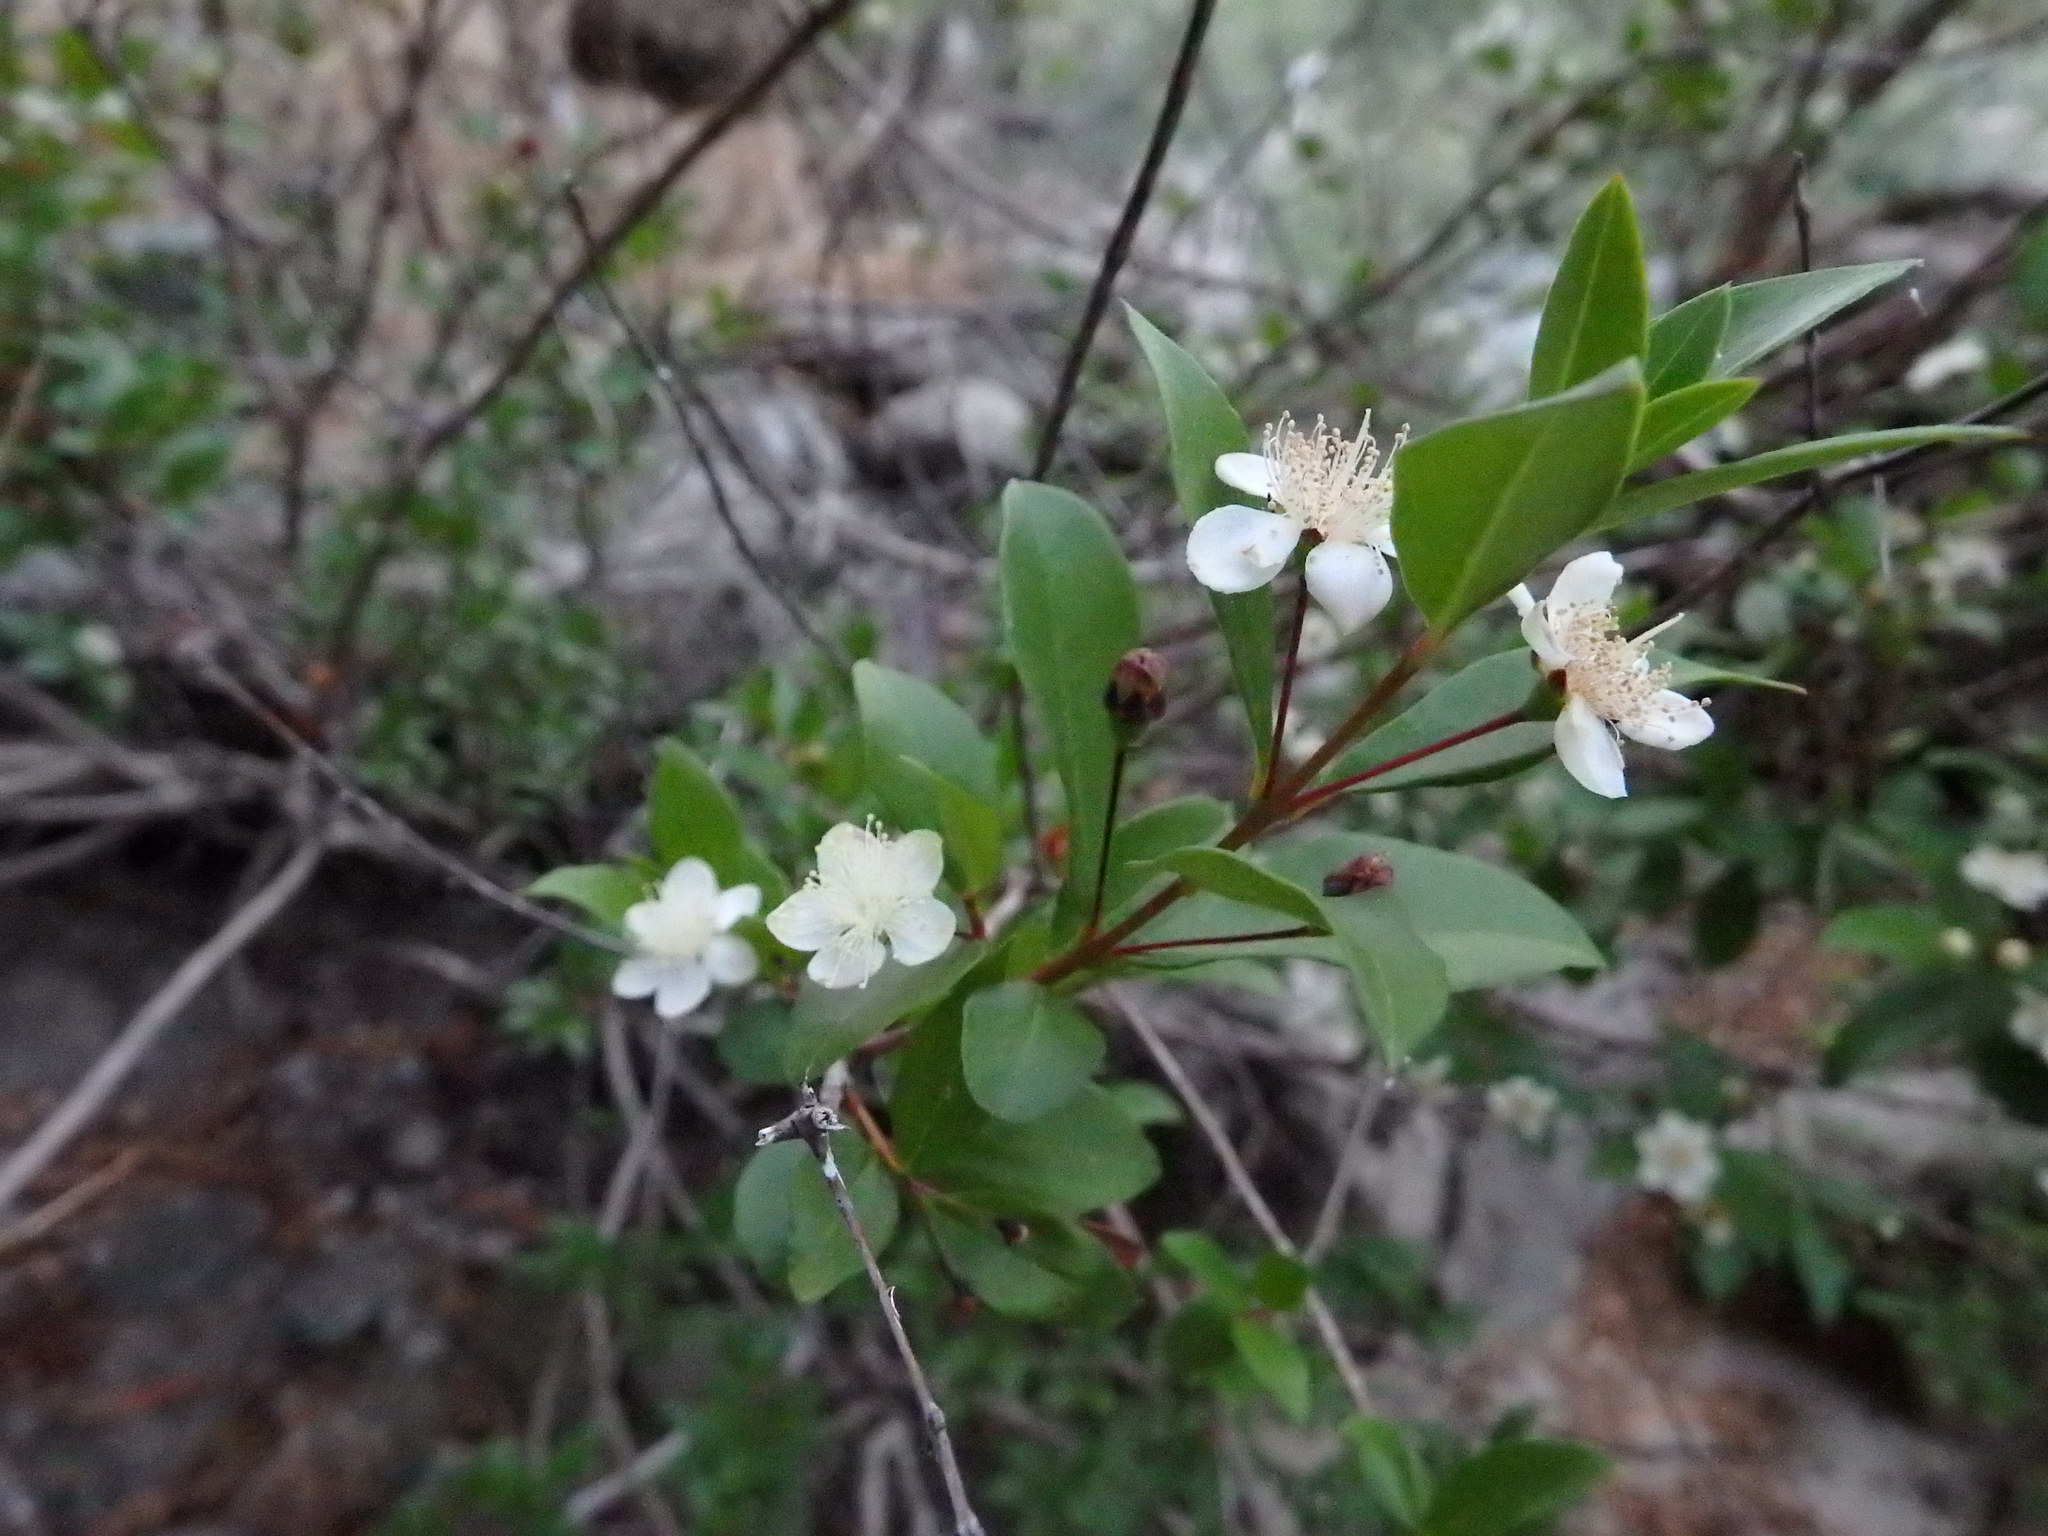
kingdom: Plantae
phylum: Tracheophyta
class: Magnoliopsida
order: Myrtales
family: Myrtaceae
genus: Myrtus
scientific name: Myrtus communis
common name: Myrtle
